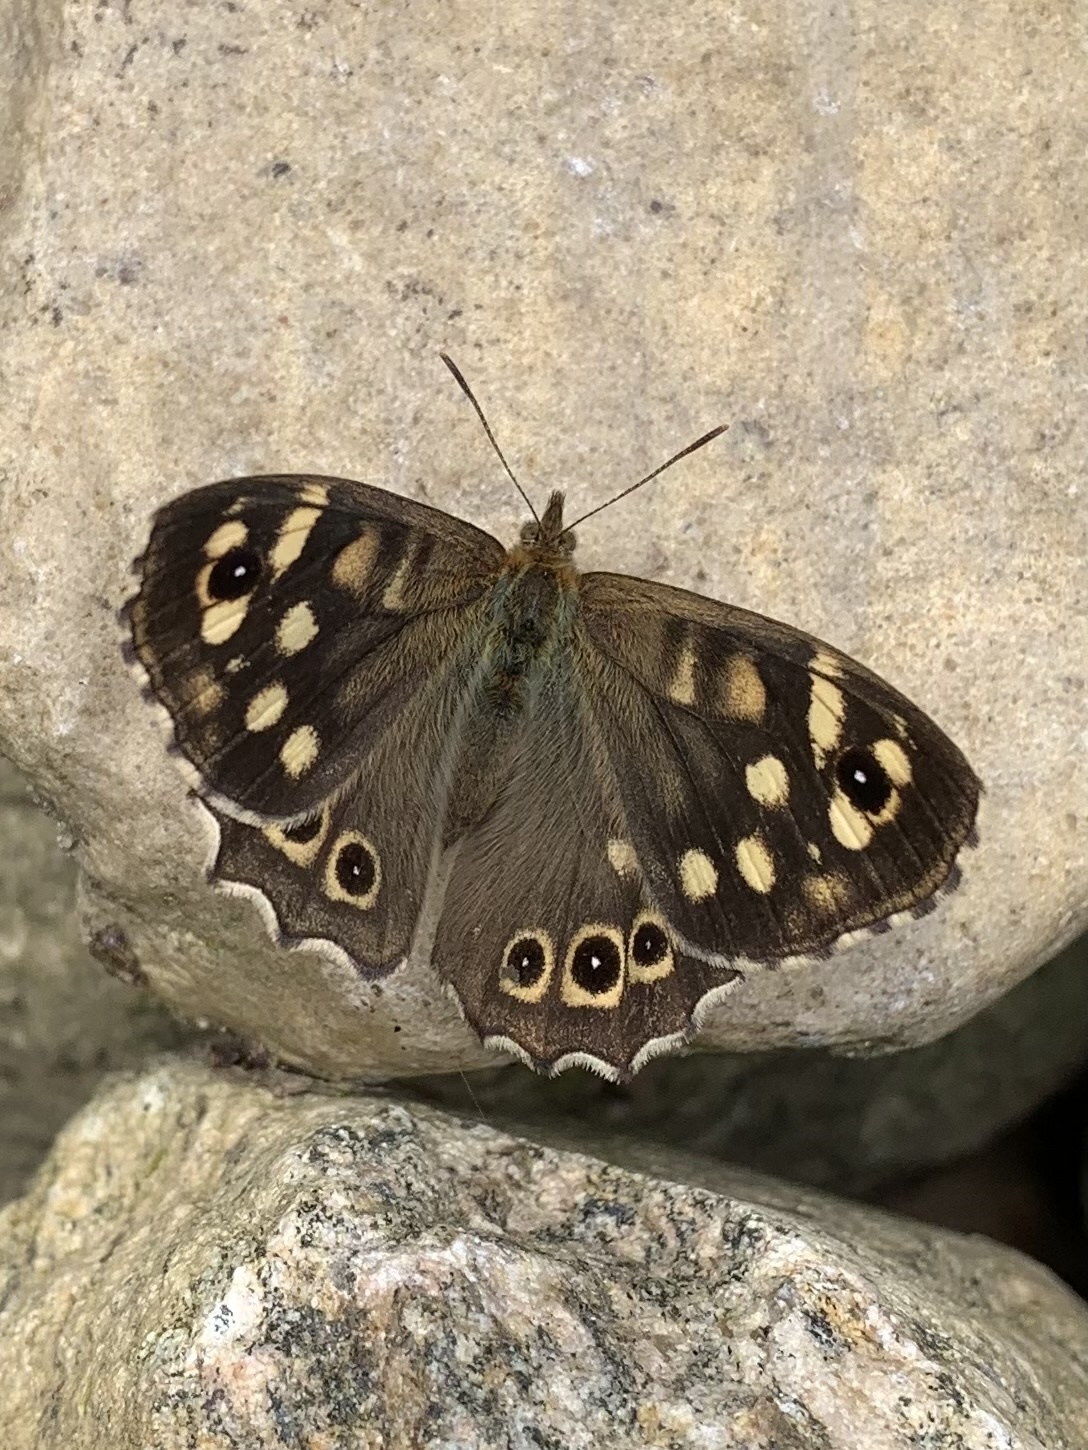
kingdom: Animalia
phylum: Arthropoda
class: Insecta
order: Lepidoptera
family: Nymphalidae
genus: Pararge
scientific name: Pararge aegeria
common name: Speckled wood
